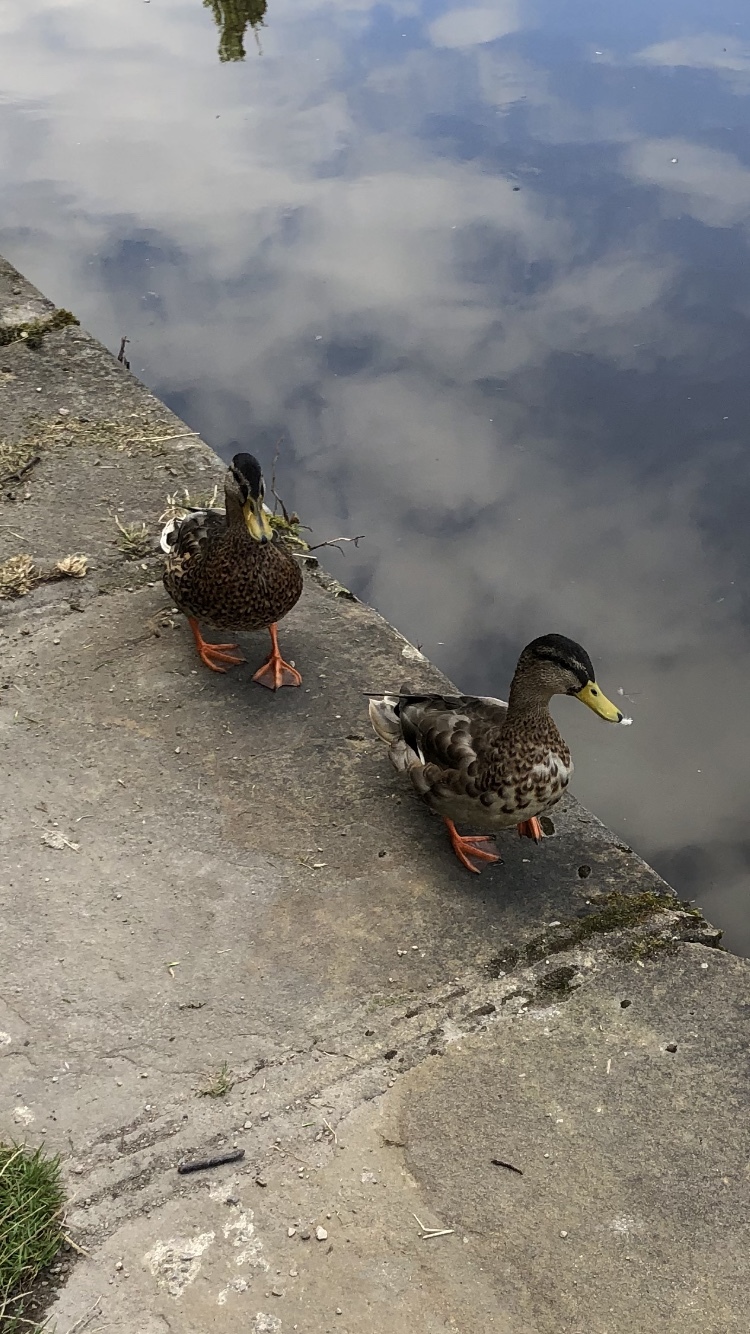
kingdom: Animalia
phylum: Chordata
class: Aves
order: Anseriformes
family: Anatidae
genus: Anas
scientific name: Anas platyrhynchos
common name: Mallard
